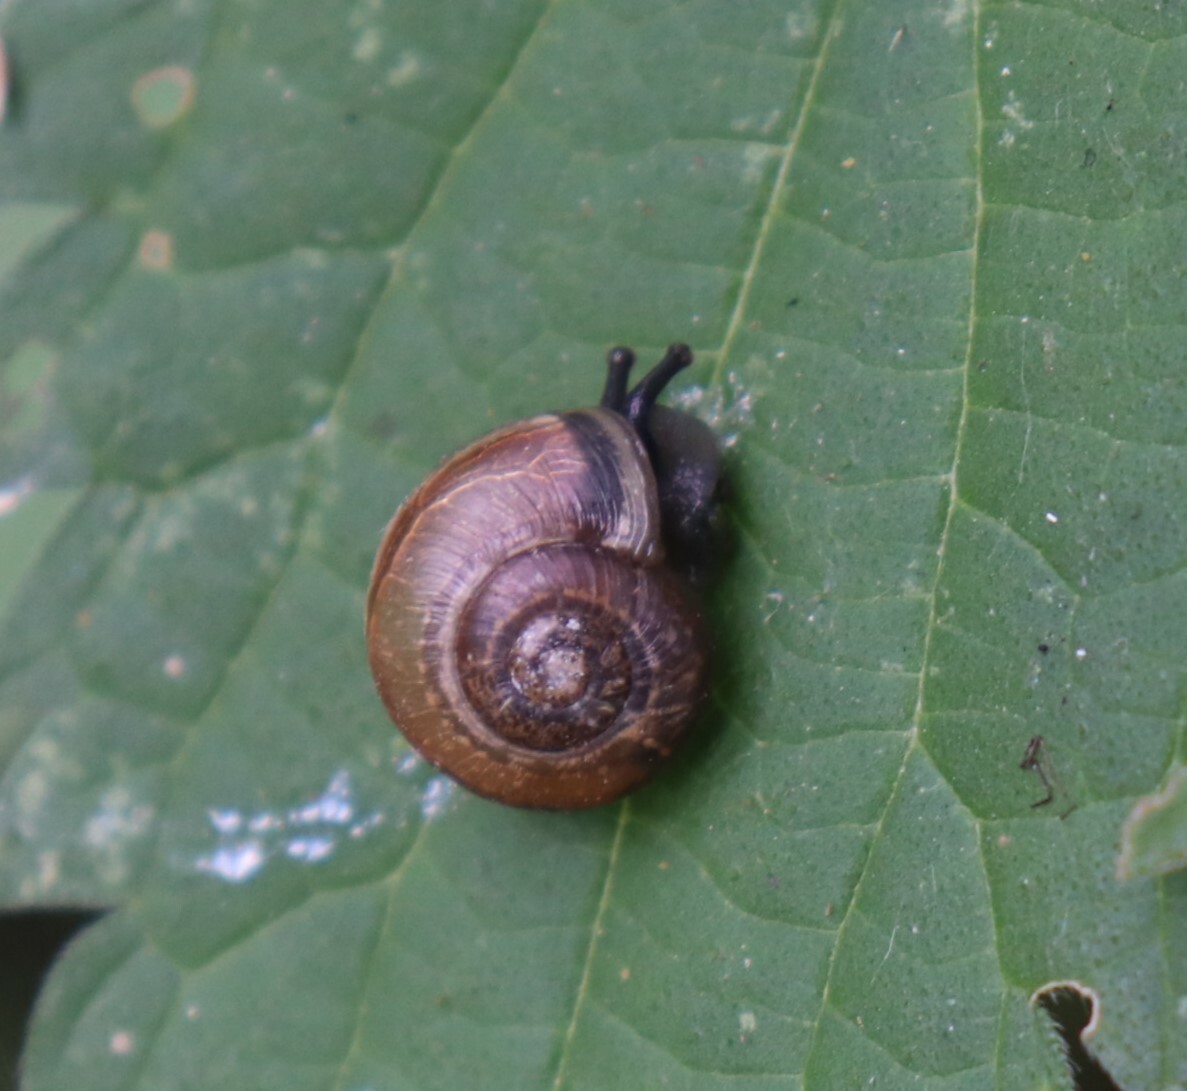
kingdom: Animalia
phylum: Mollusca
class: Gastropoda
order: Stylommatophora
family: Helicidae
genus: Arianta
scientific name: Arianta arbustorum
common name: Copse snail
